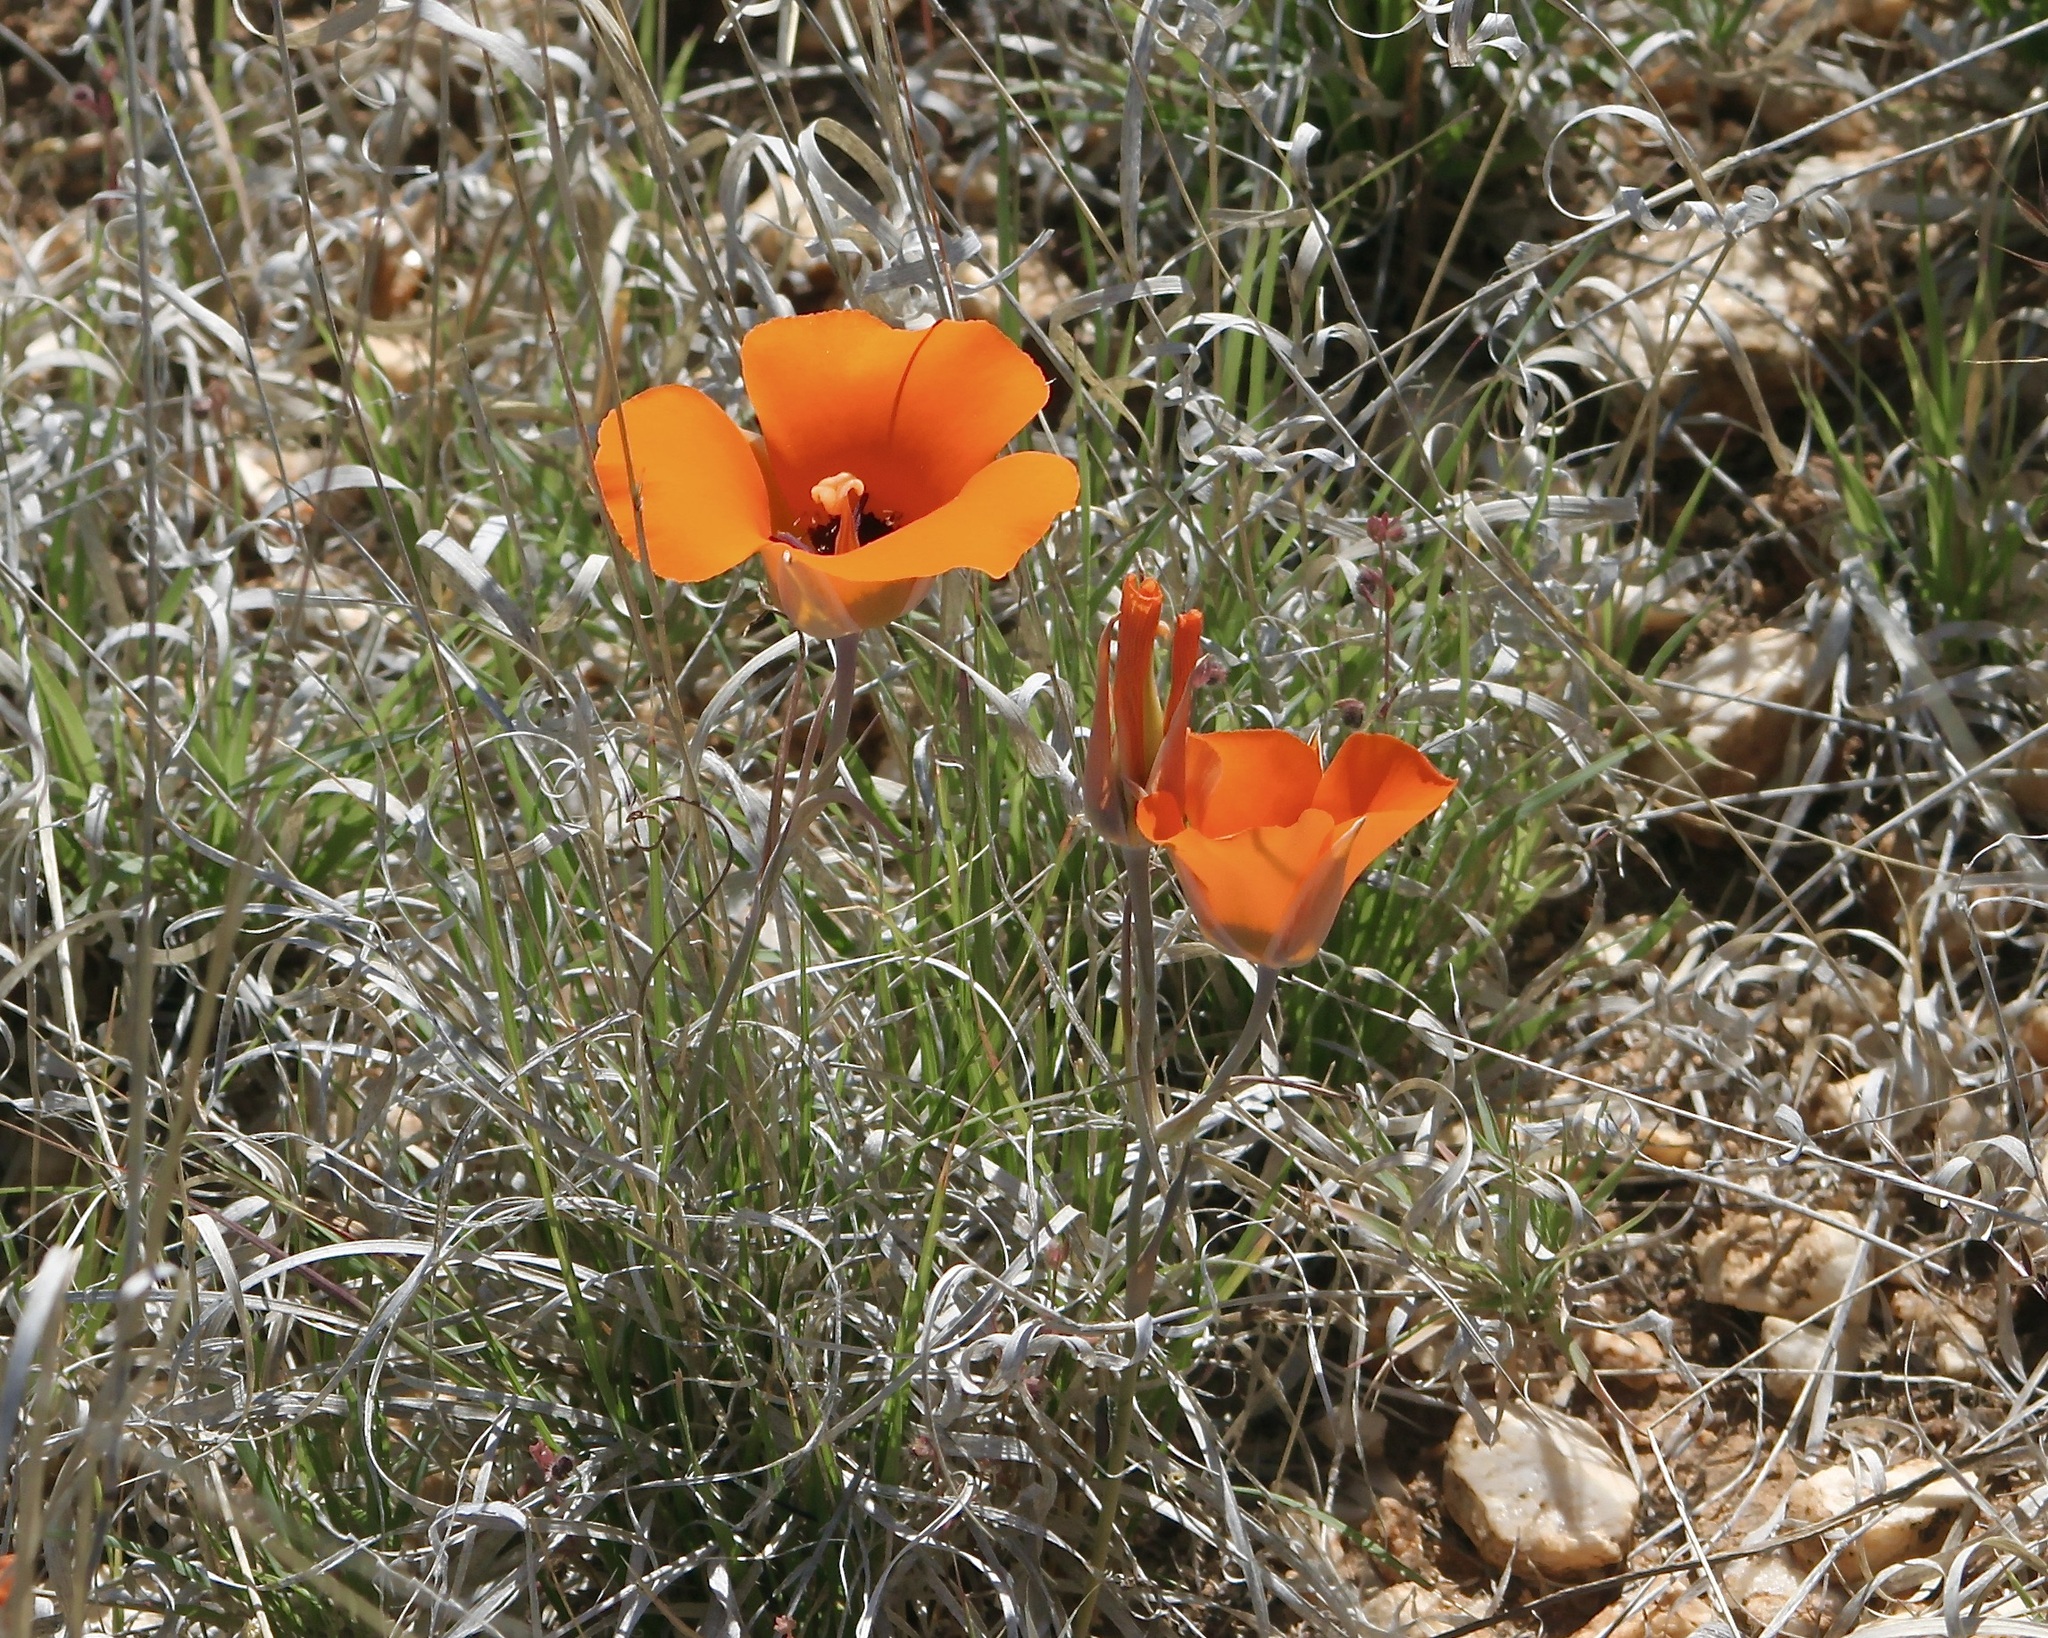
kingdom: Plantae
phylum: Tracheophyta
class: Liliopsida
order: Liliales
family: Liliaceae
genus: Calochortus
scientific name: Calochortus kennedyi
